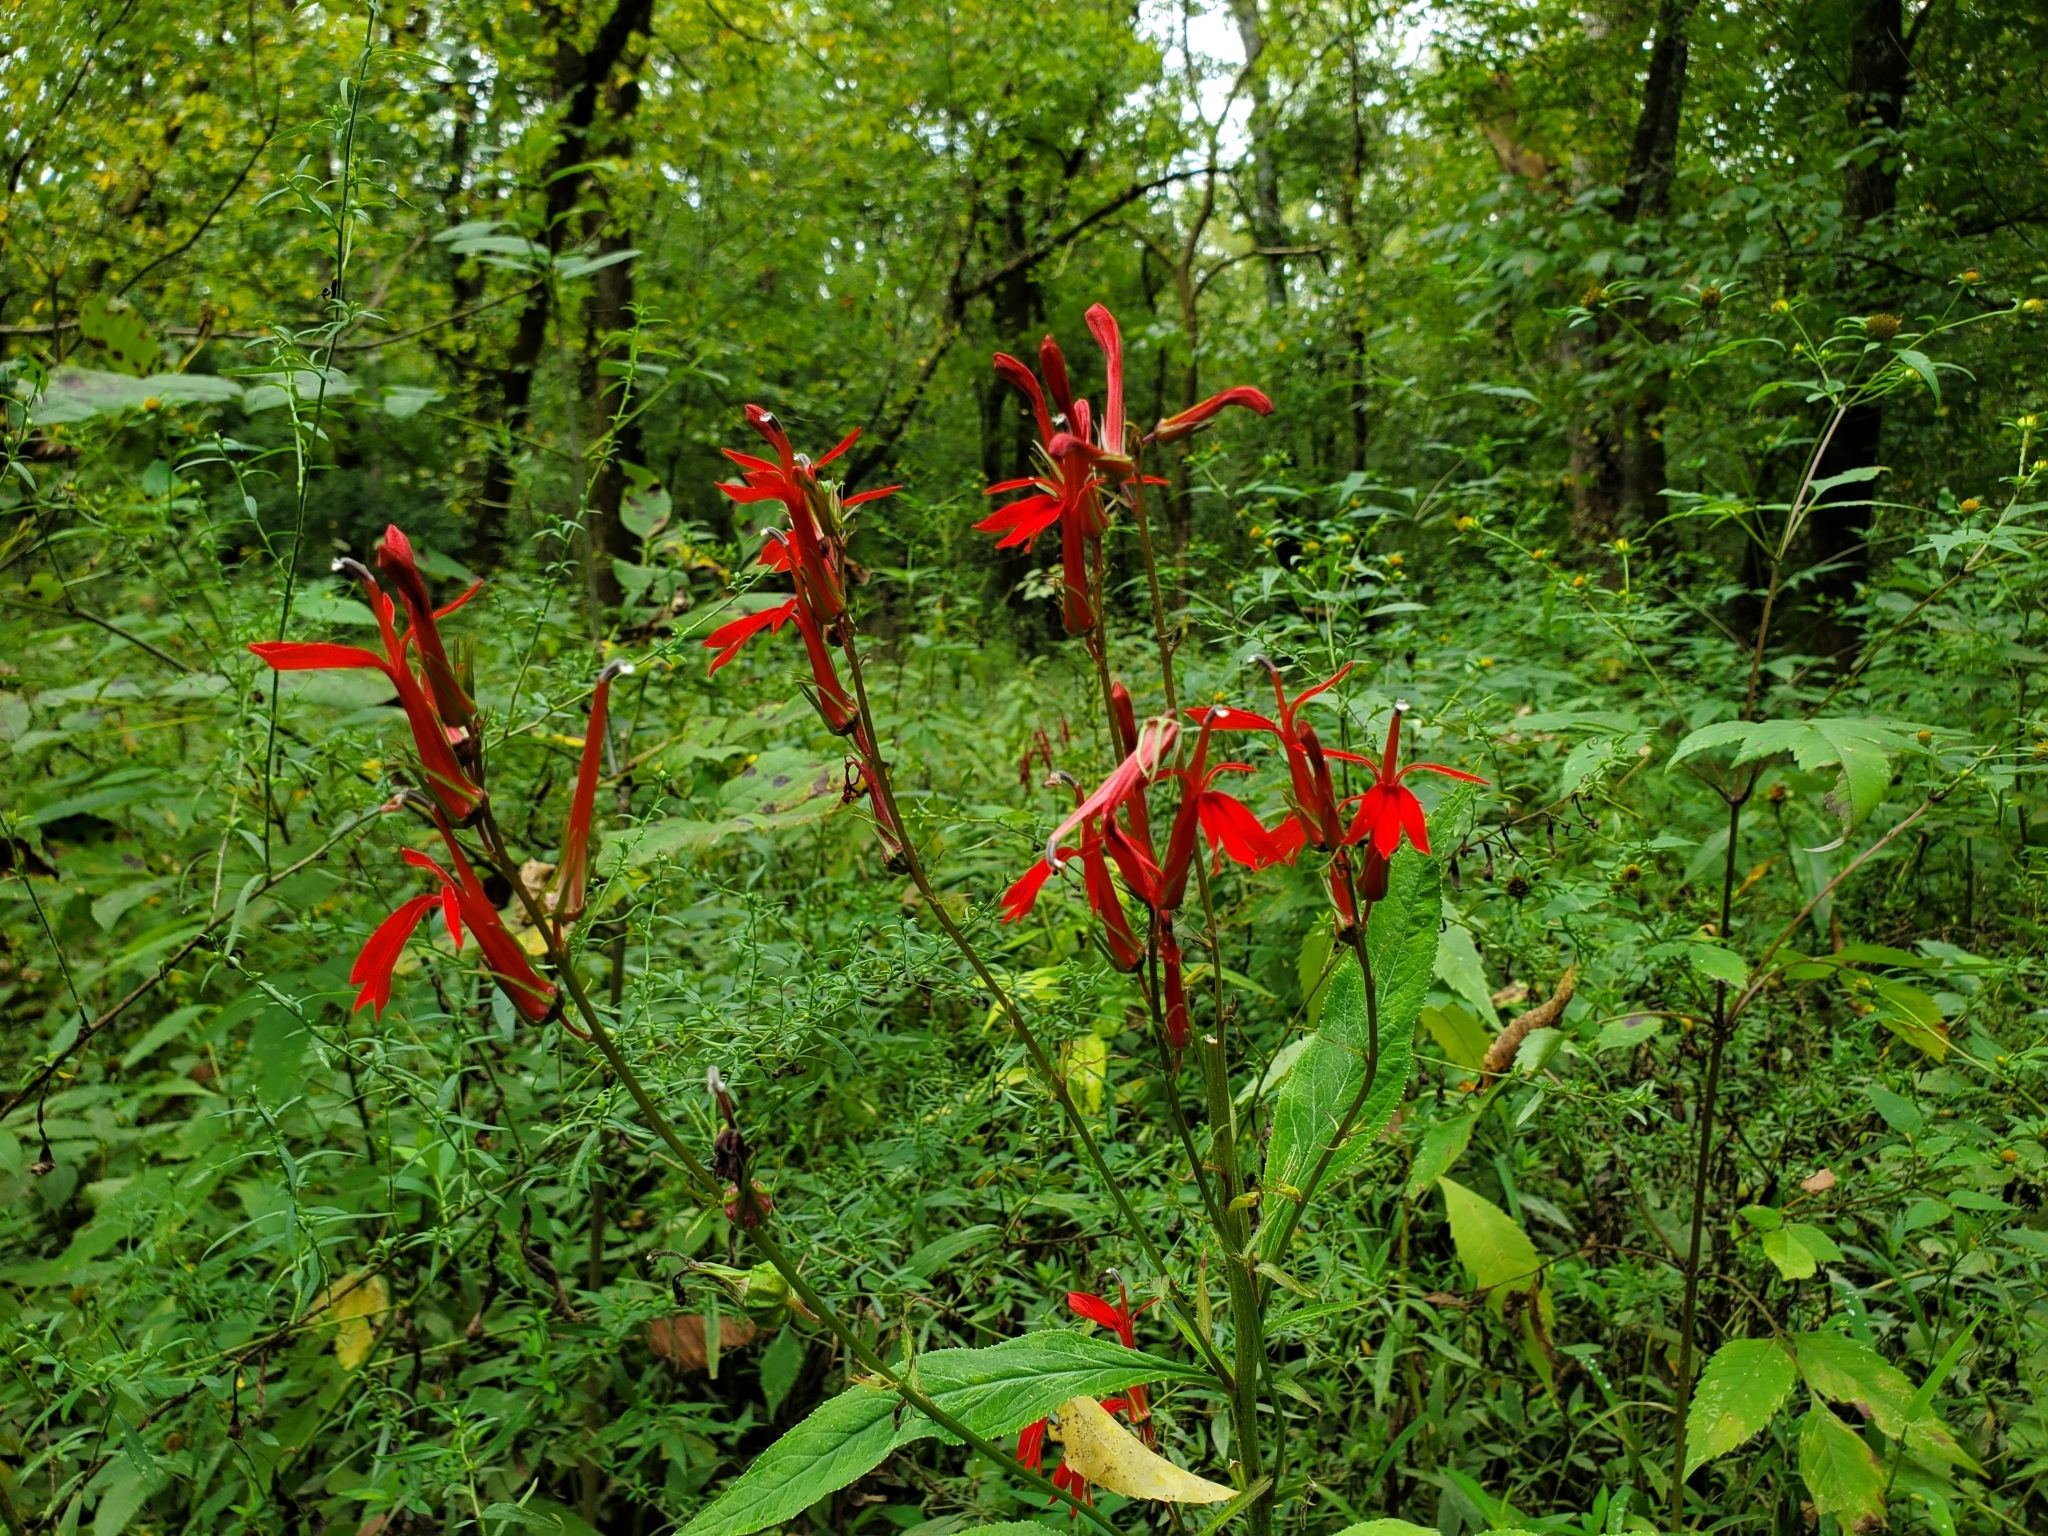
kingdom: Plantae
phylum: Tracheophyta
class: Magnoliopsida
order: Asterales
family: Campanulaceae
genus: Lobelia
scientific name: Lobelia cardinalis
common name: Cardinal flower
